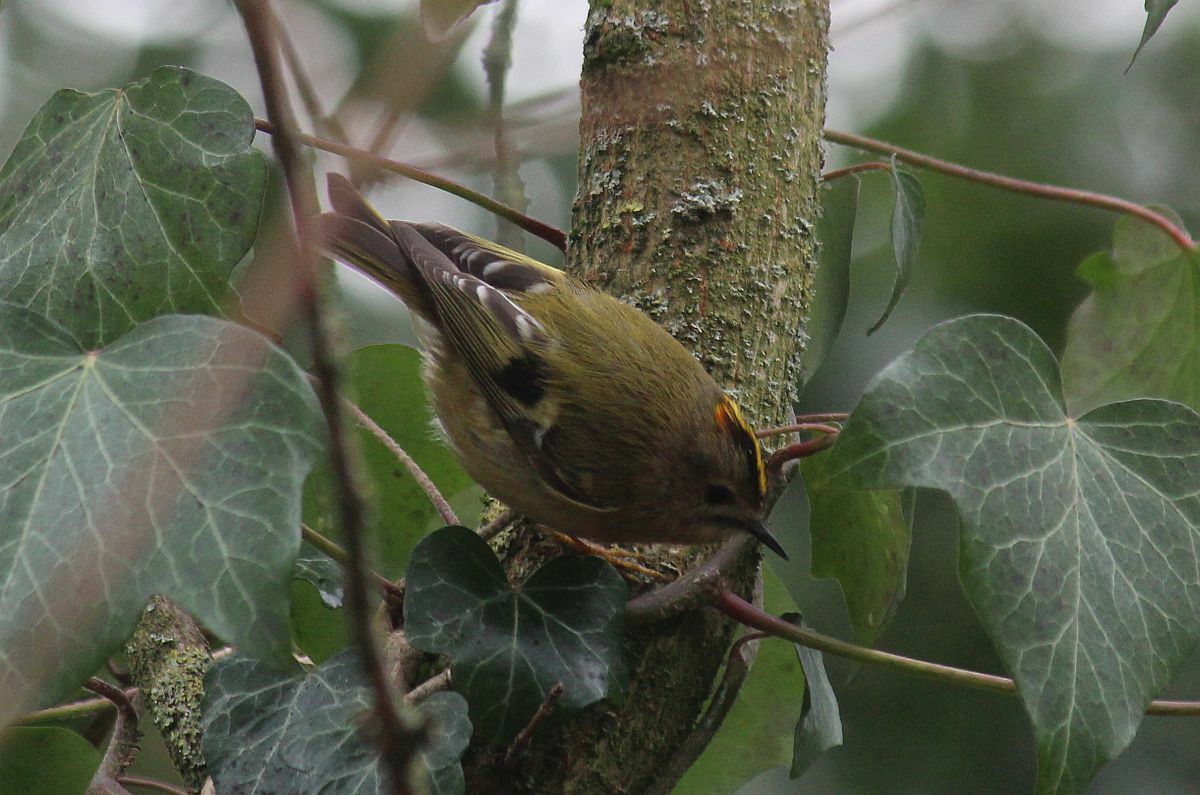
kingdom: Animalia
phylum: Chordata
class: Aves
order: Passeriformes
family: Regulidae
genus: Regulus
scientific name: Regulus regulus
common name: Goldcrest
